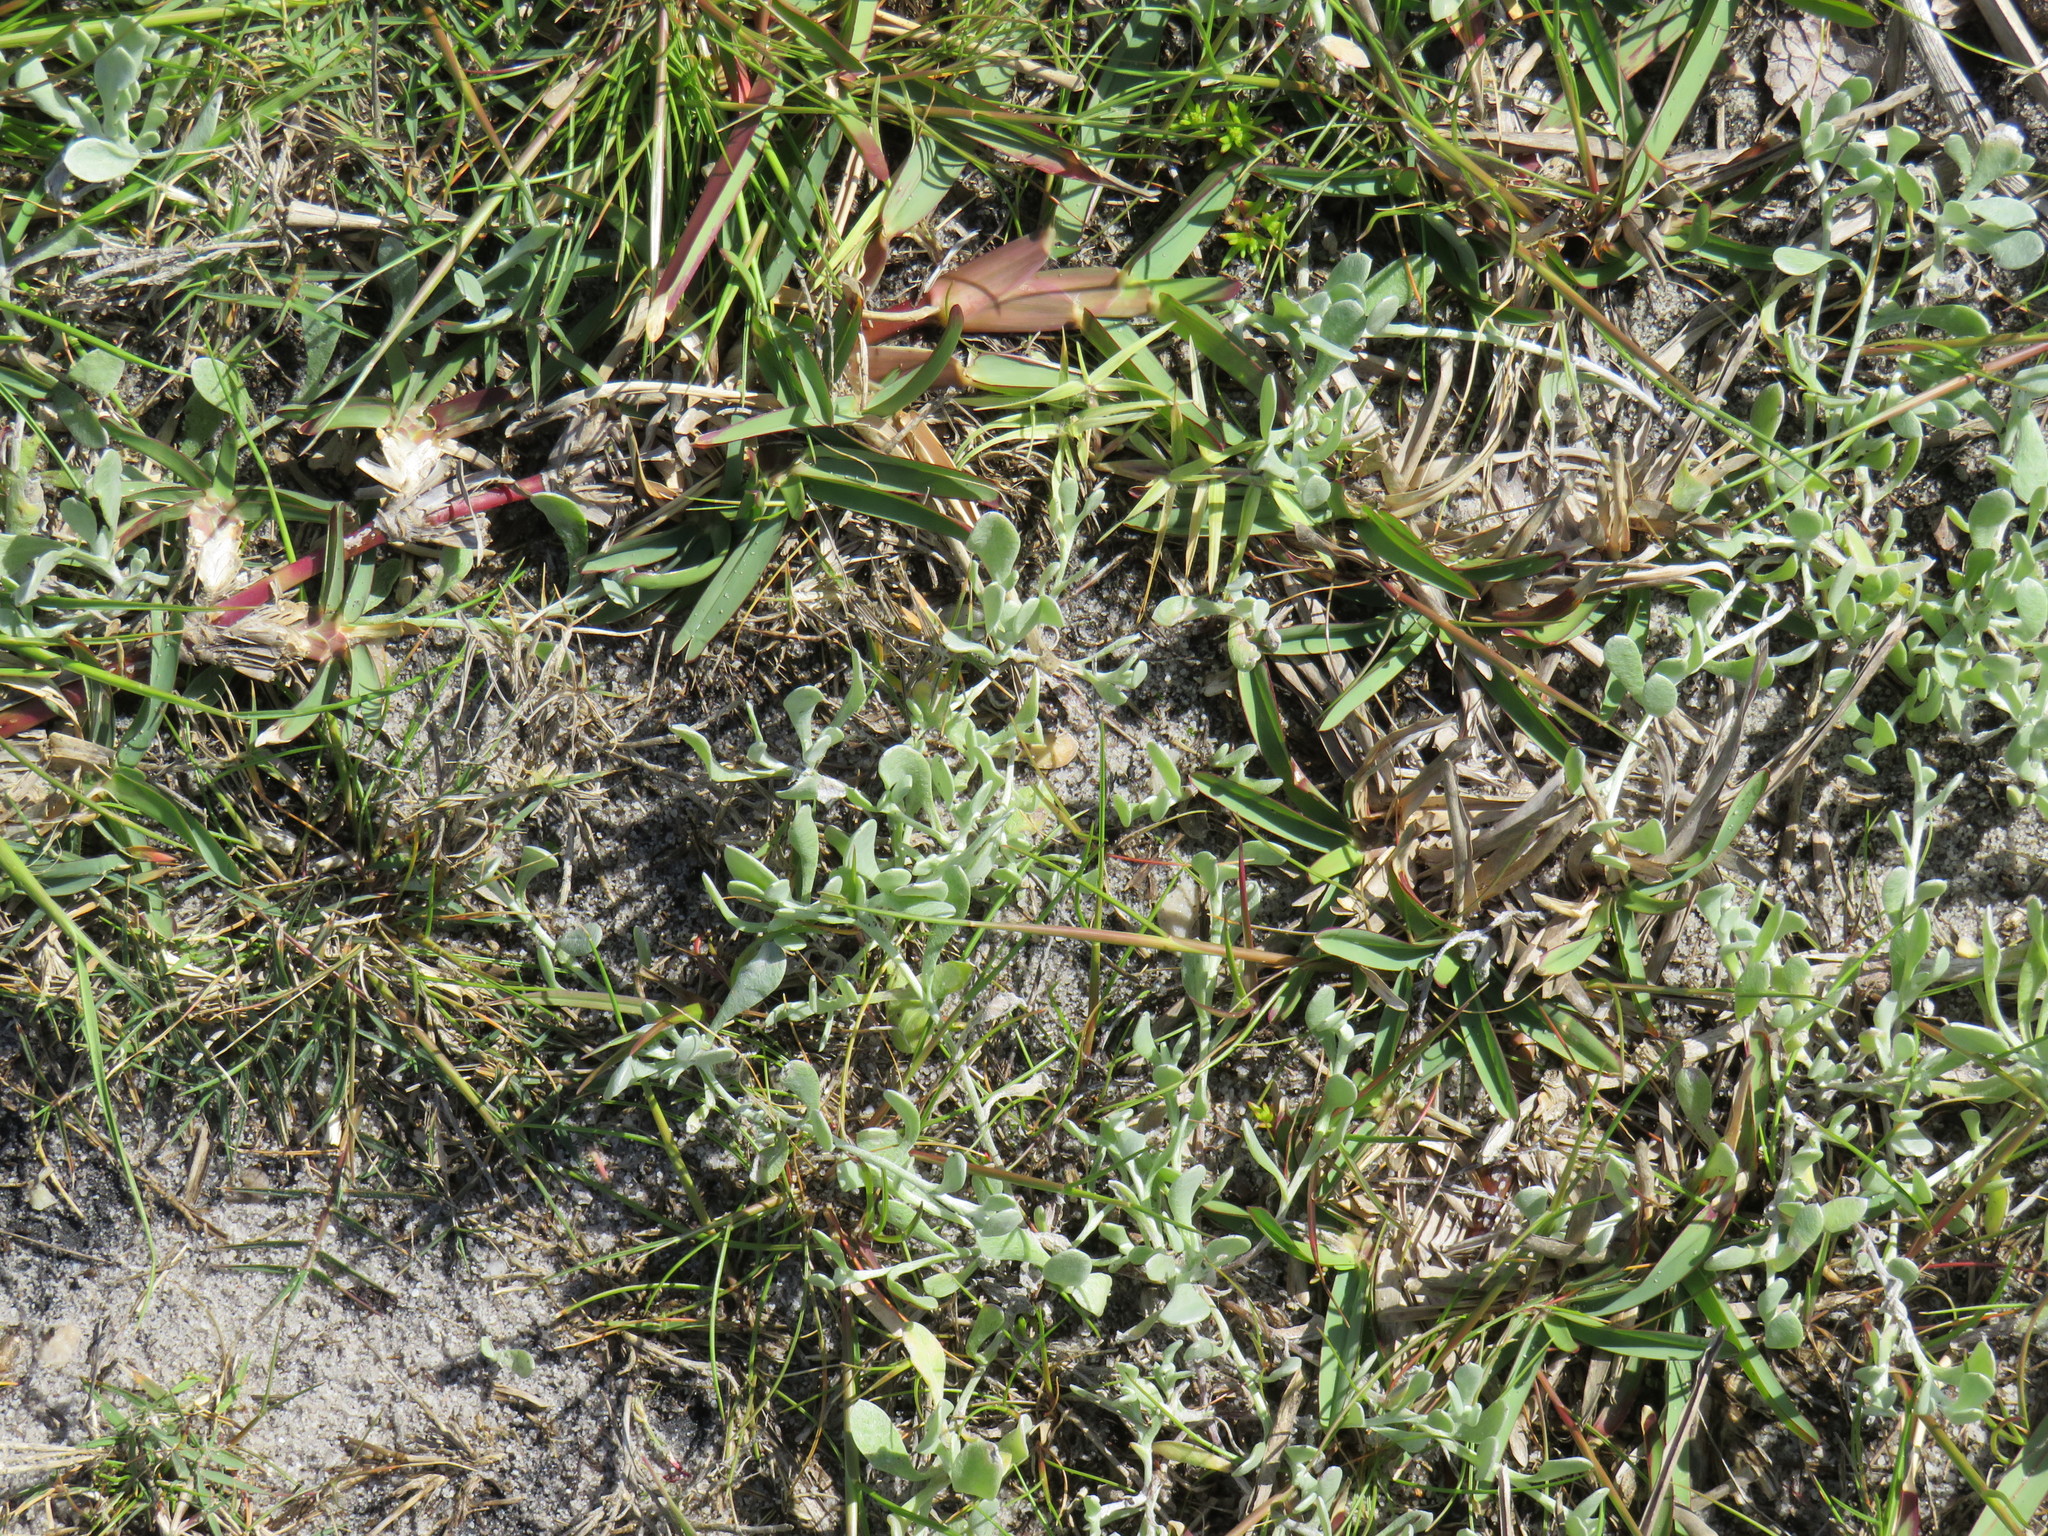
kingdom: Plantae
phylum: Tracheophyta
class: Magnoliopsida
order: Asterales
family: Asteraceae
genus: Helichrysum
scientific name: Helichrysum indicum
